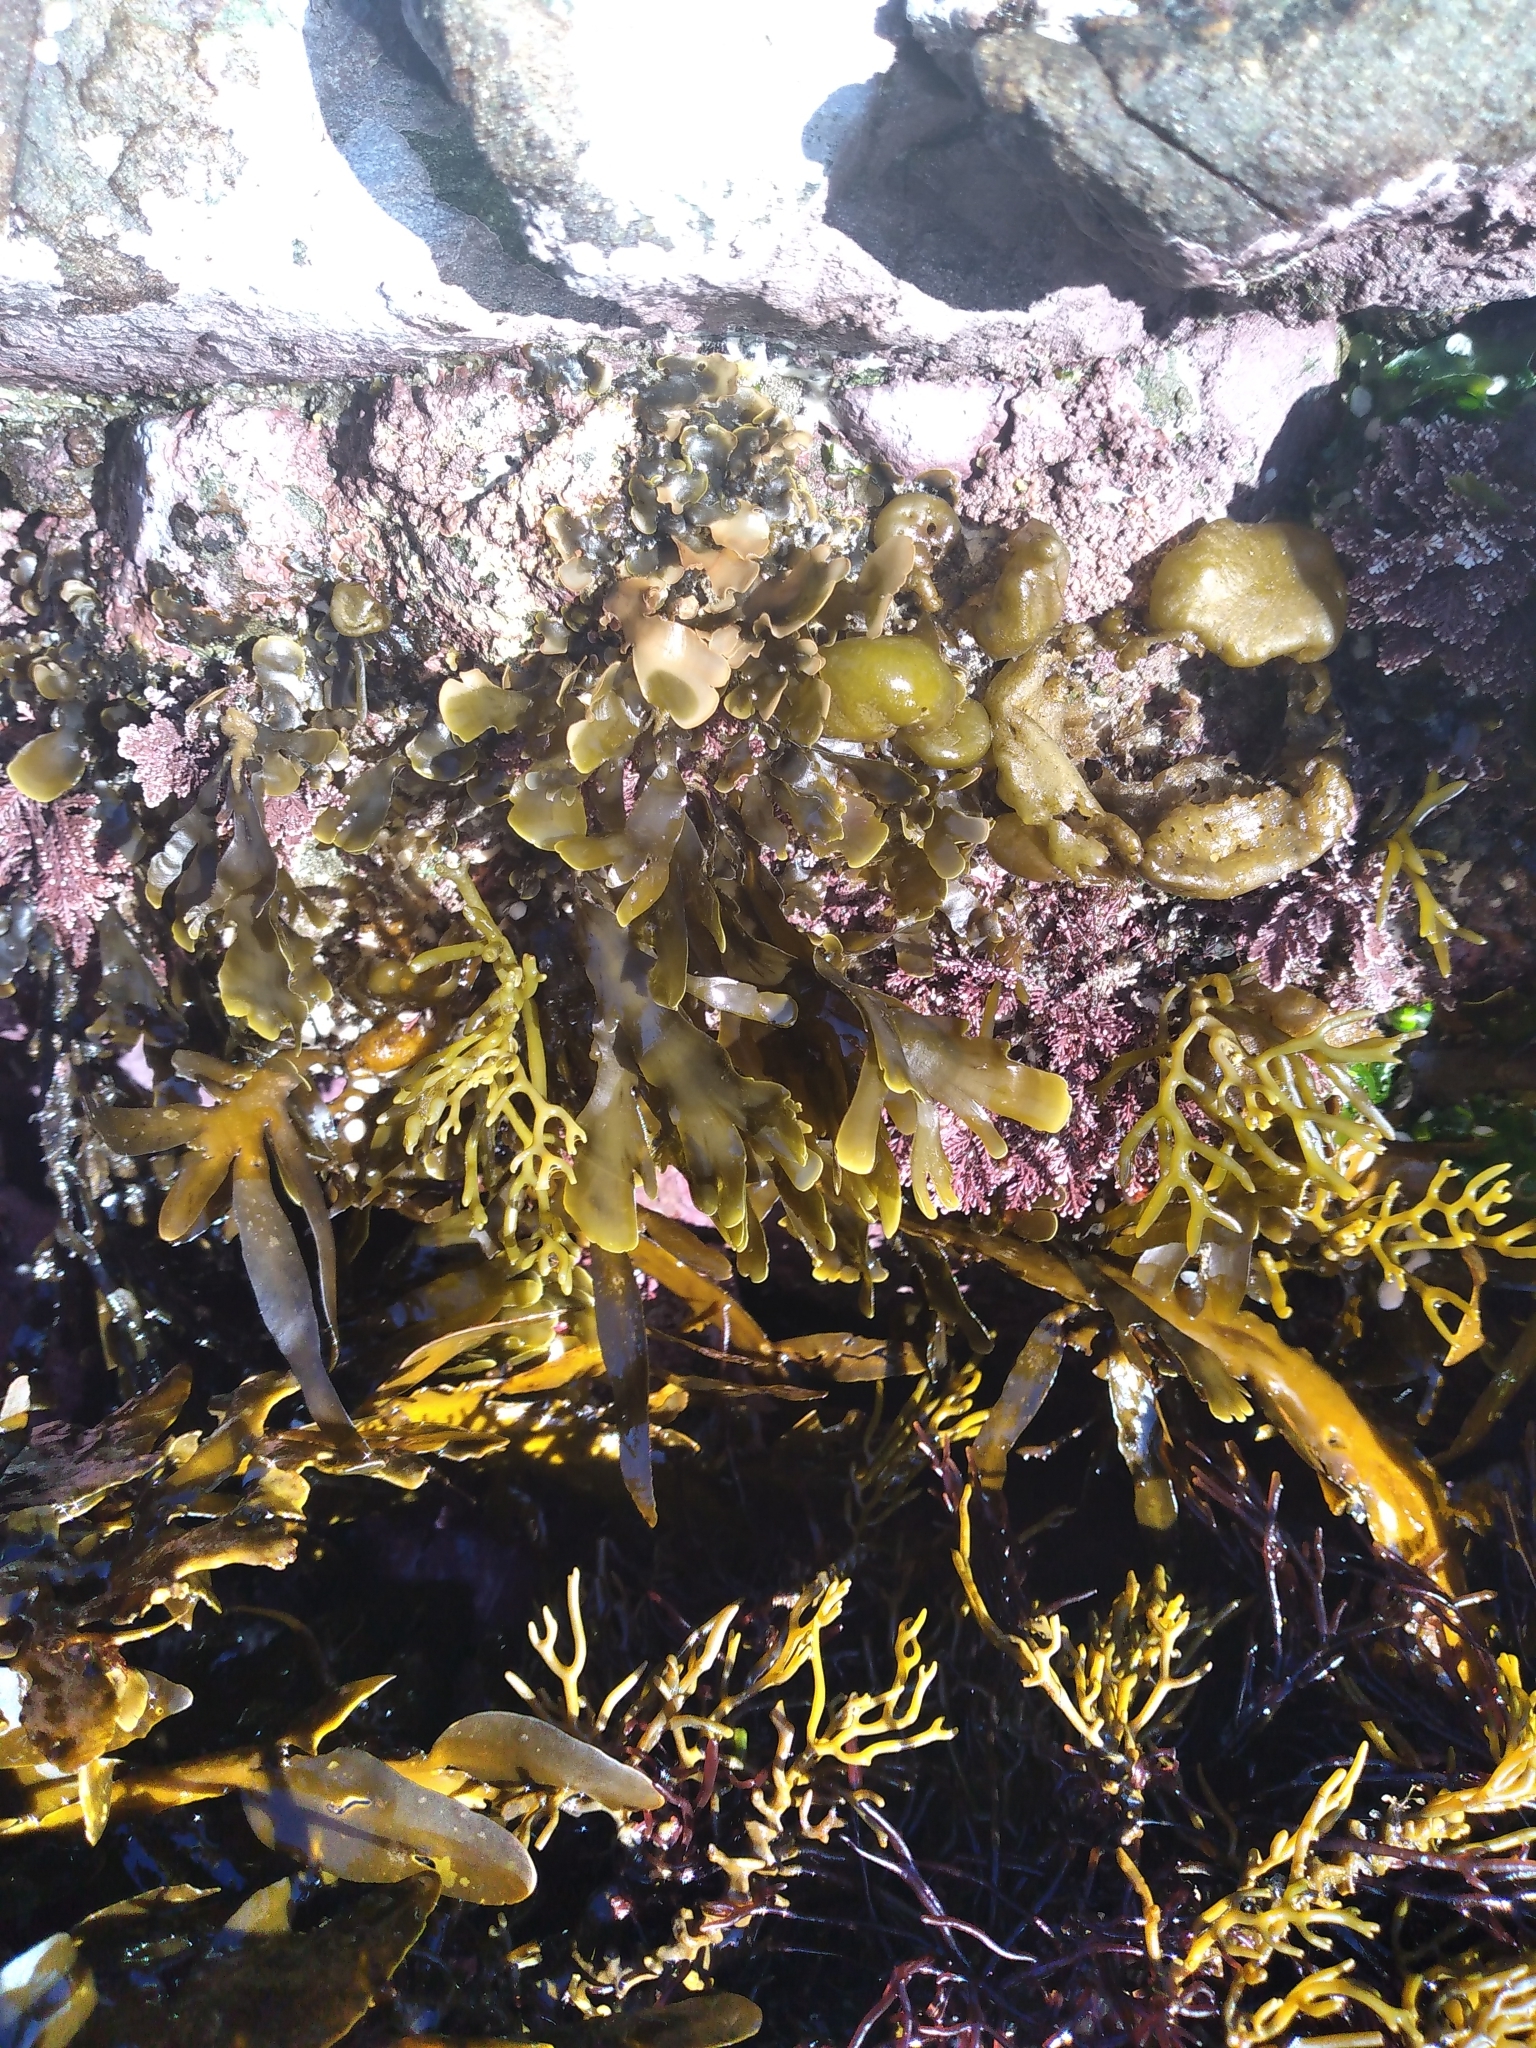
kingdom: Chromista
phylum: Ochrophyta
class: Phaeophyceae
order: Dictyotales
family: Dictyotaceae
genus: Zonaria
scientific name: Zonaria aureomarginata
